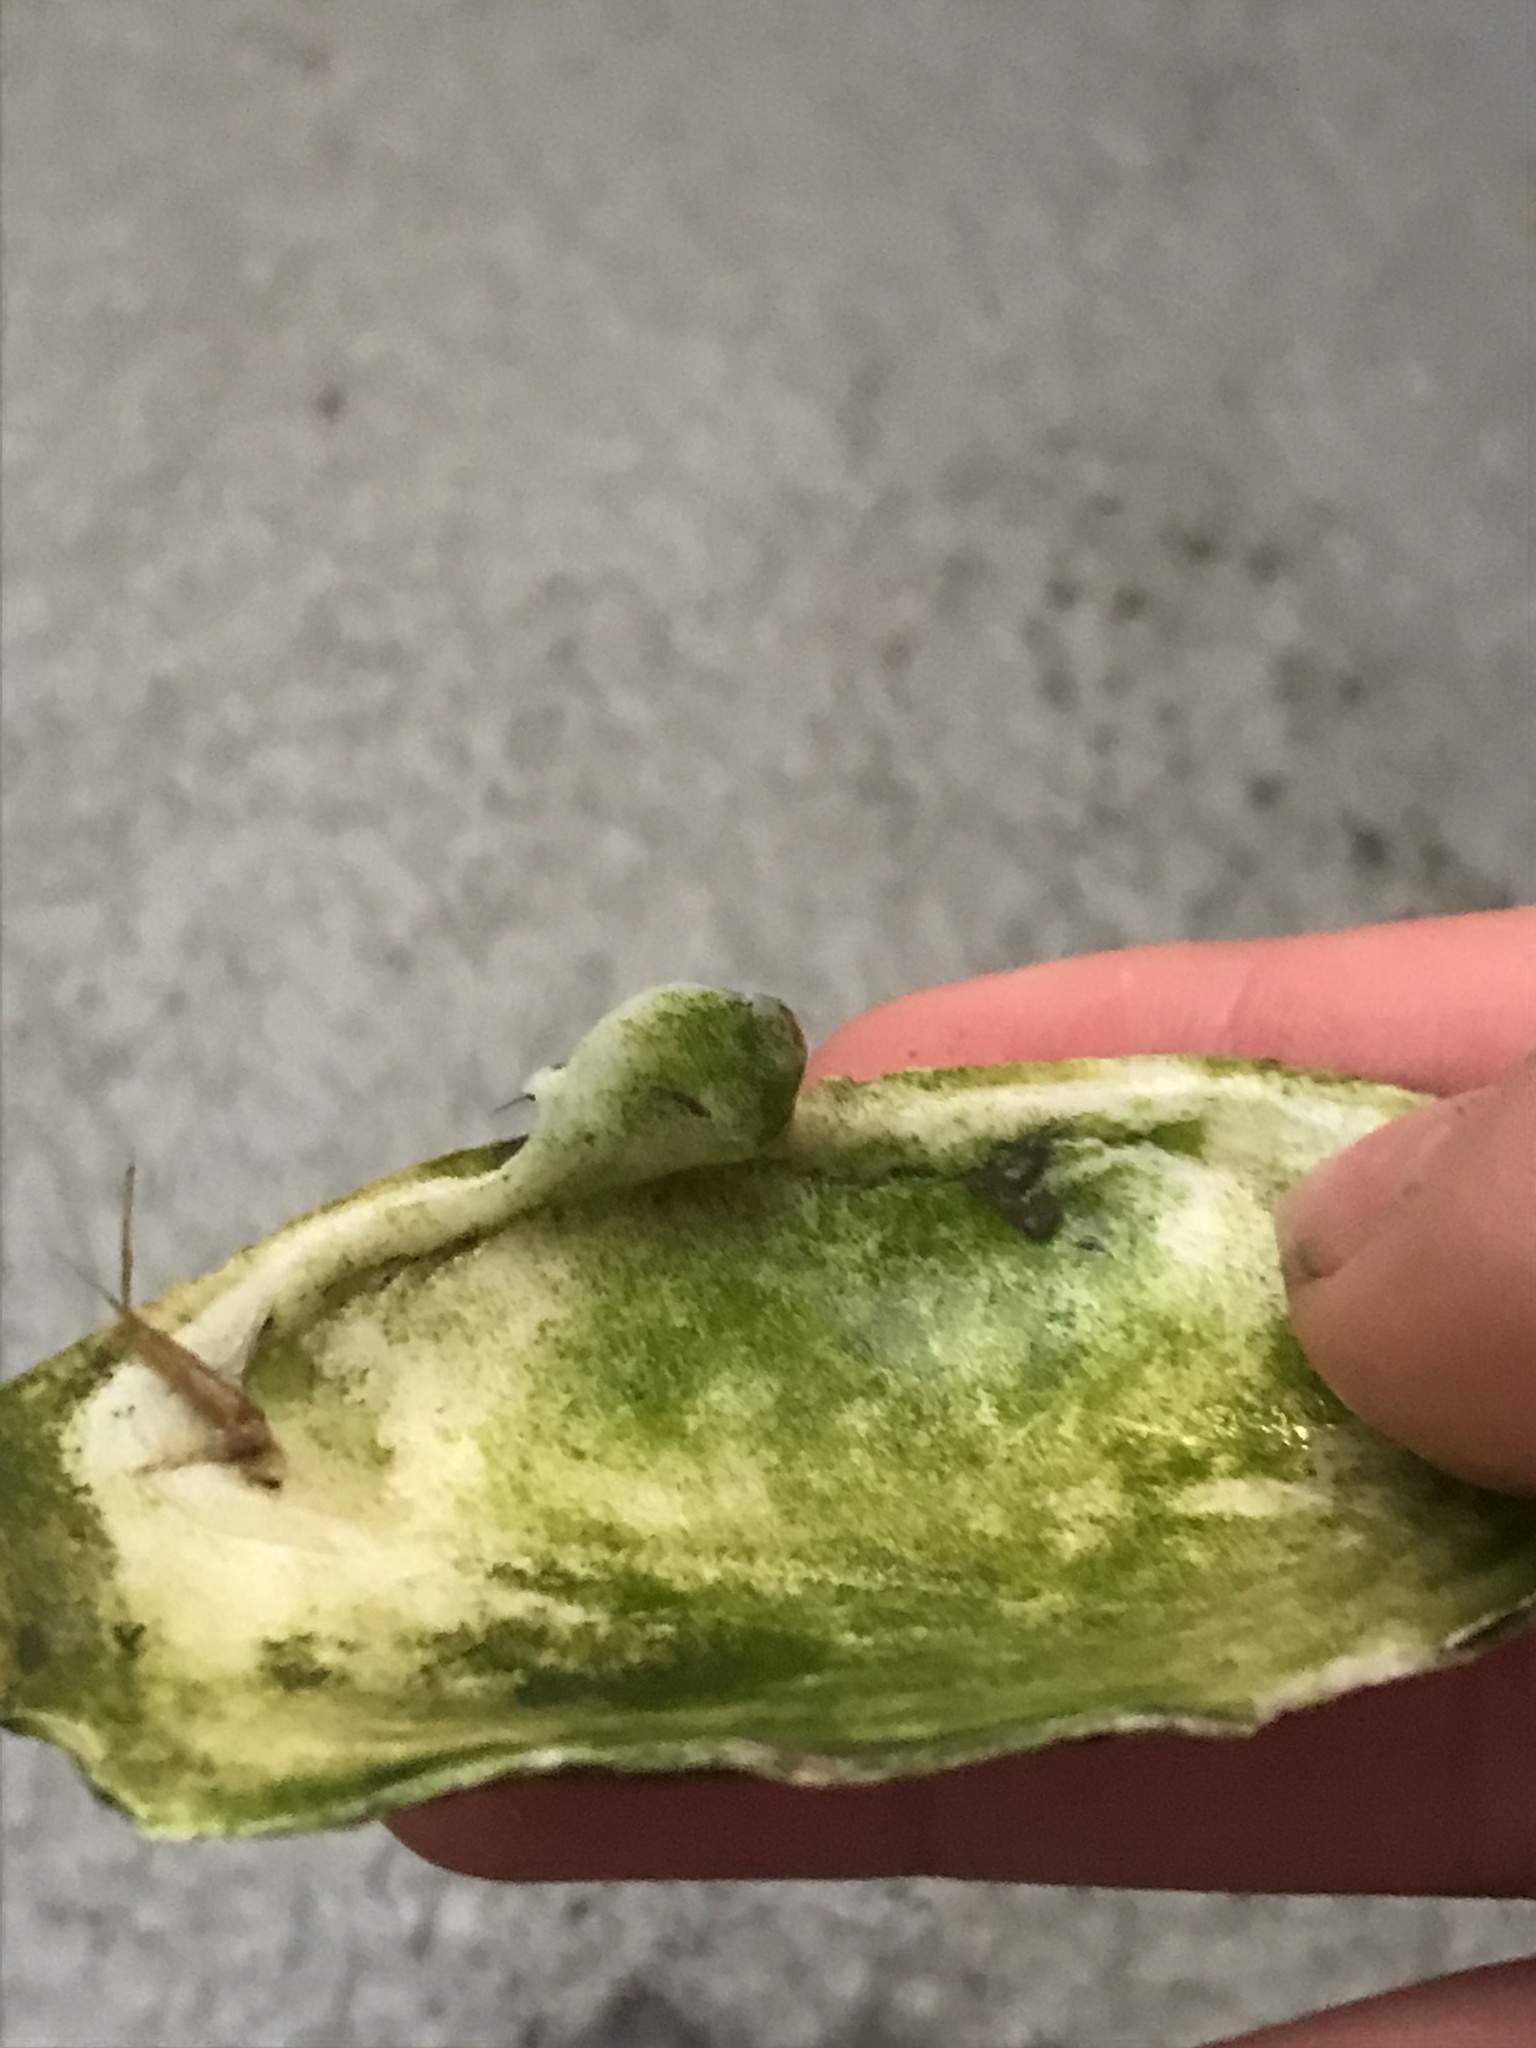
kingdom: Animalia
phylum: Mollusca
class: Bivalvia
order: Myida
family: Myidae
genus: Mya
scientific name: Mya arenaria
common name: Soft-shelled clam
